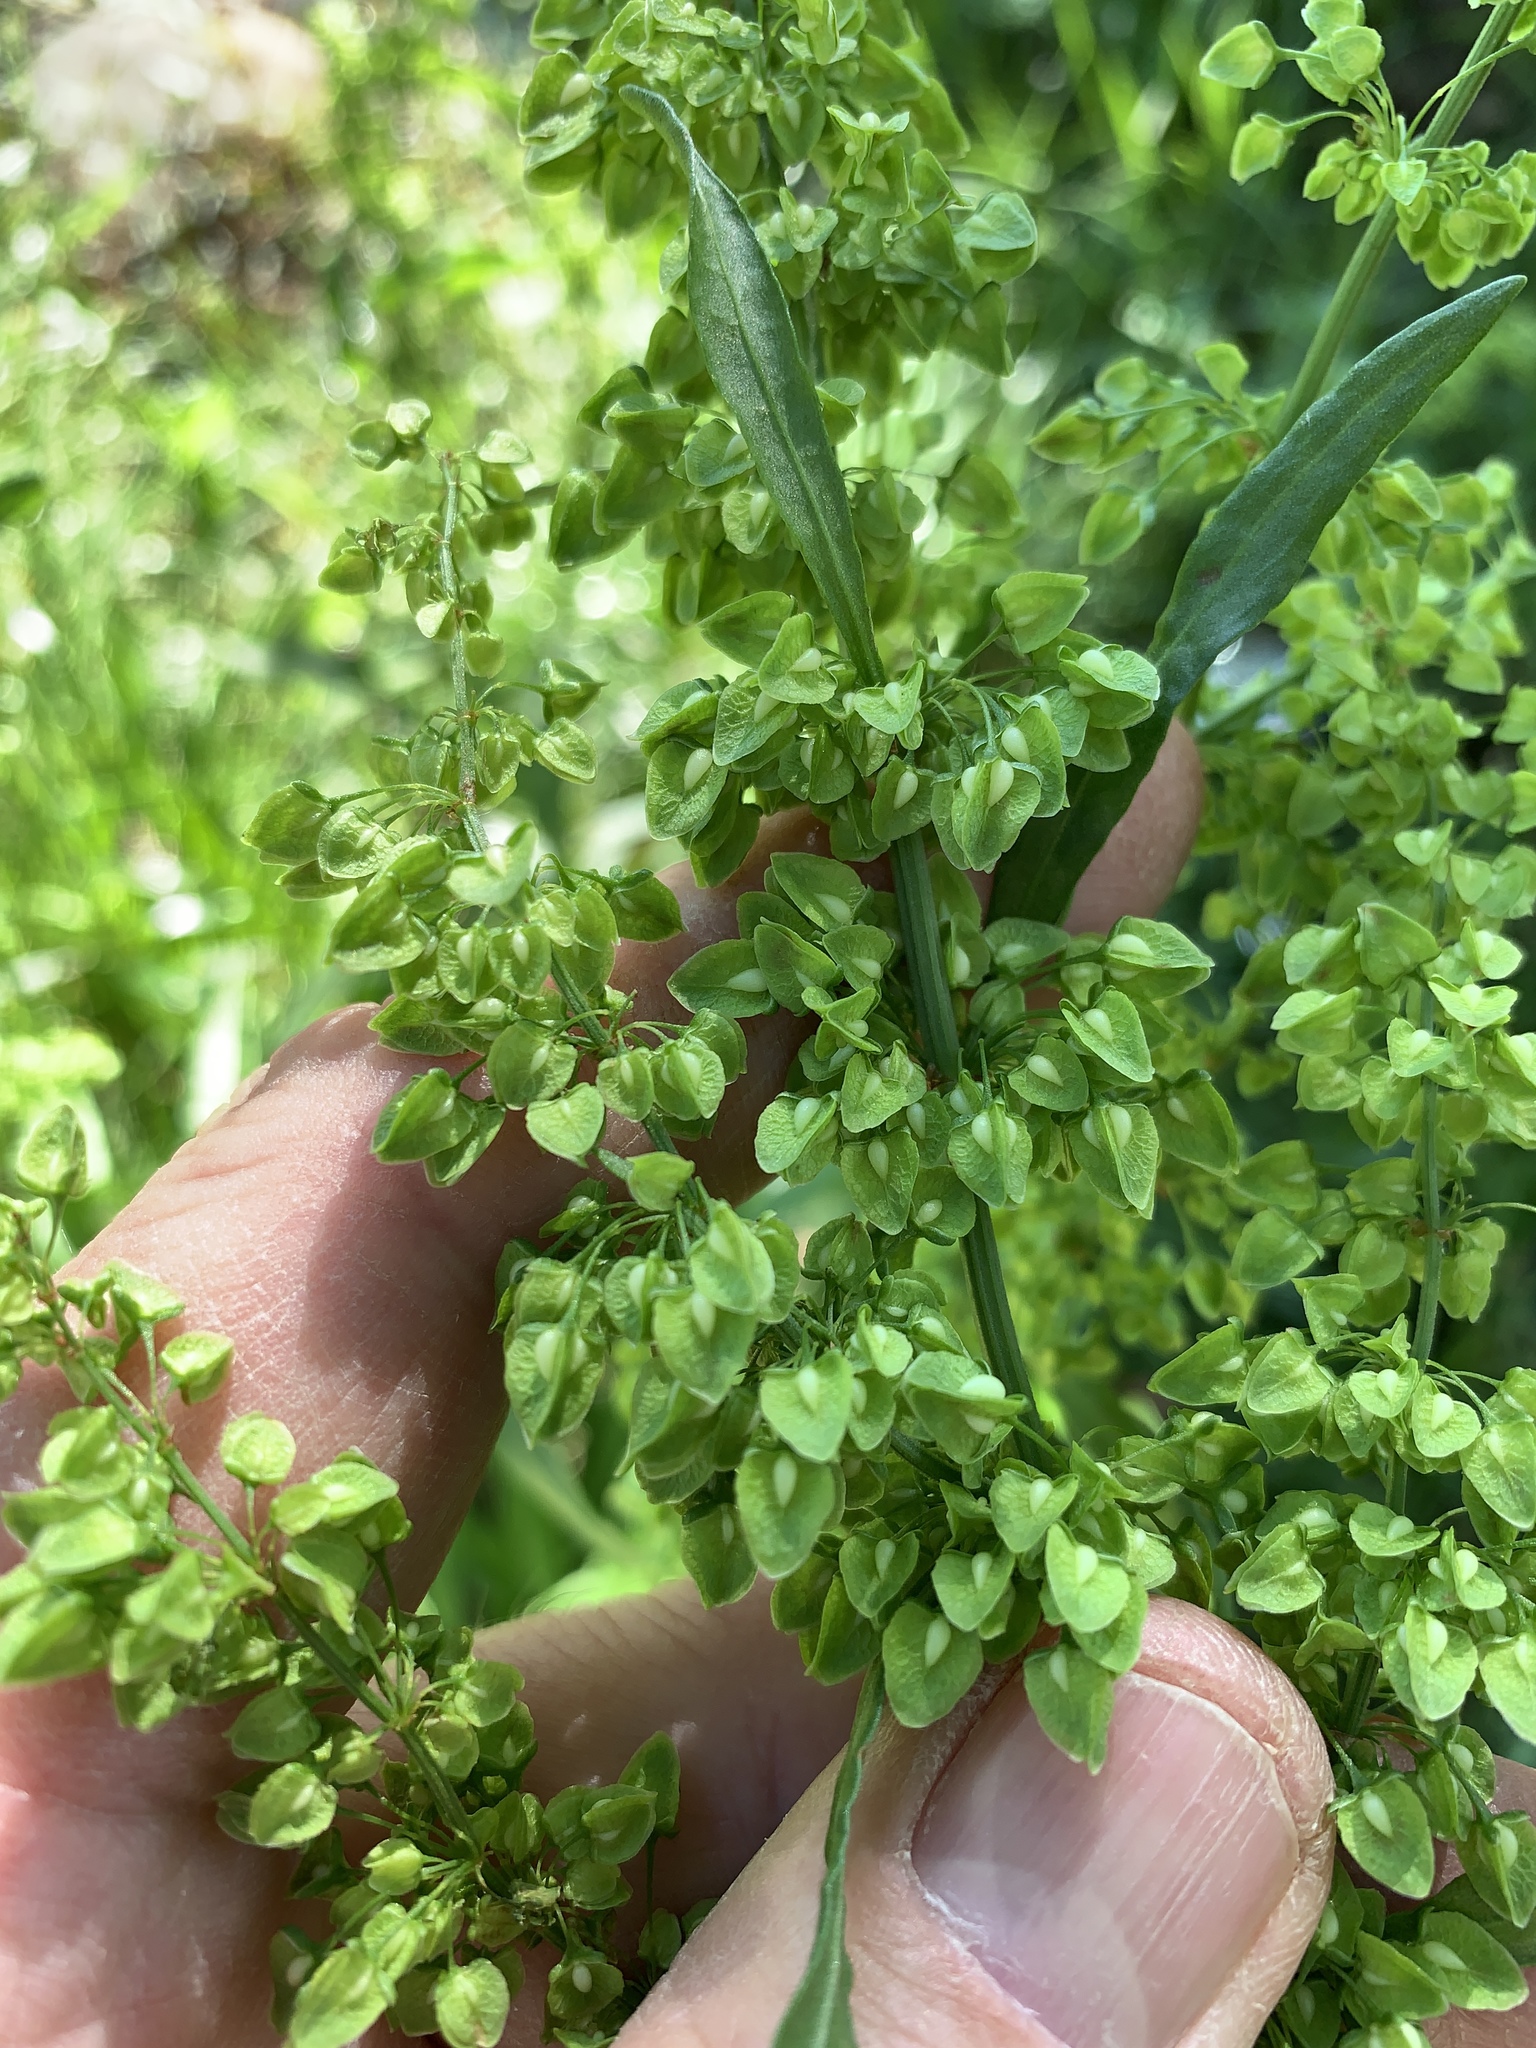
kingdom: Plantae
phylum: Tracheophyta
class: Magnoliopsida
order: Caryophyllales
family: Polygonaceae
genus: Rumex
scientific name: Rumex crispus
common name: Curled dock
